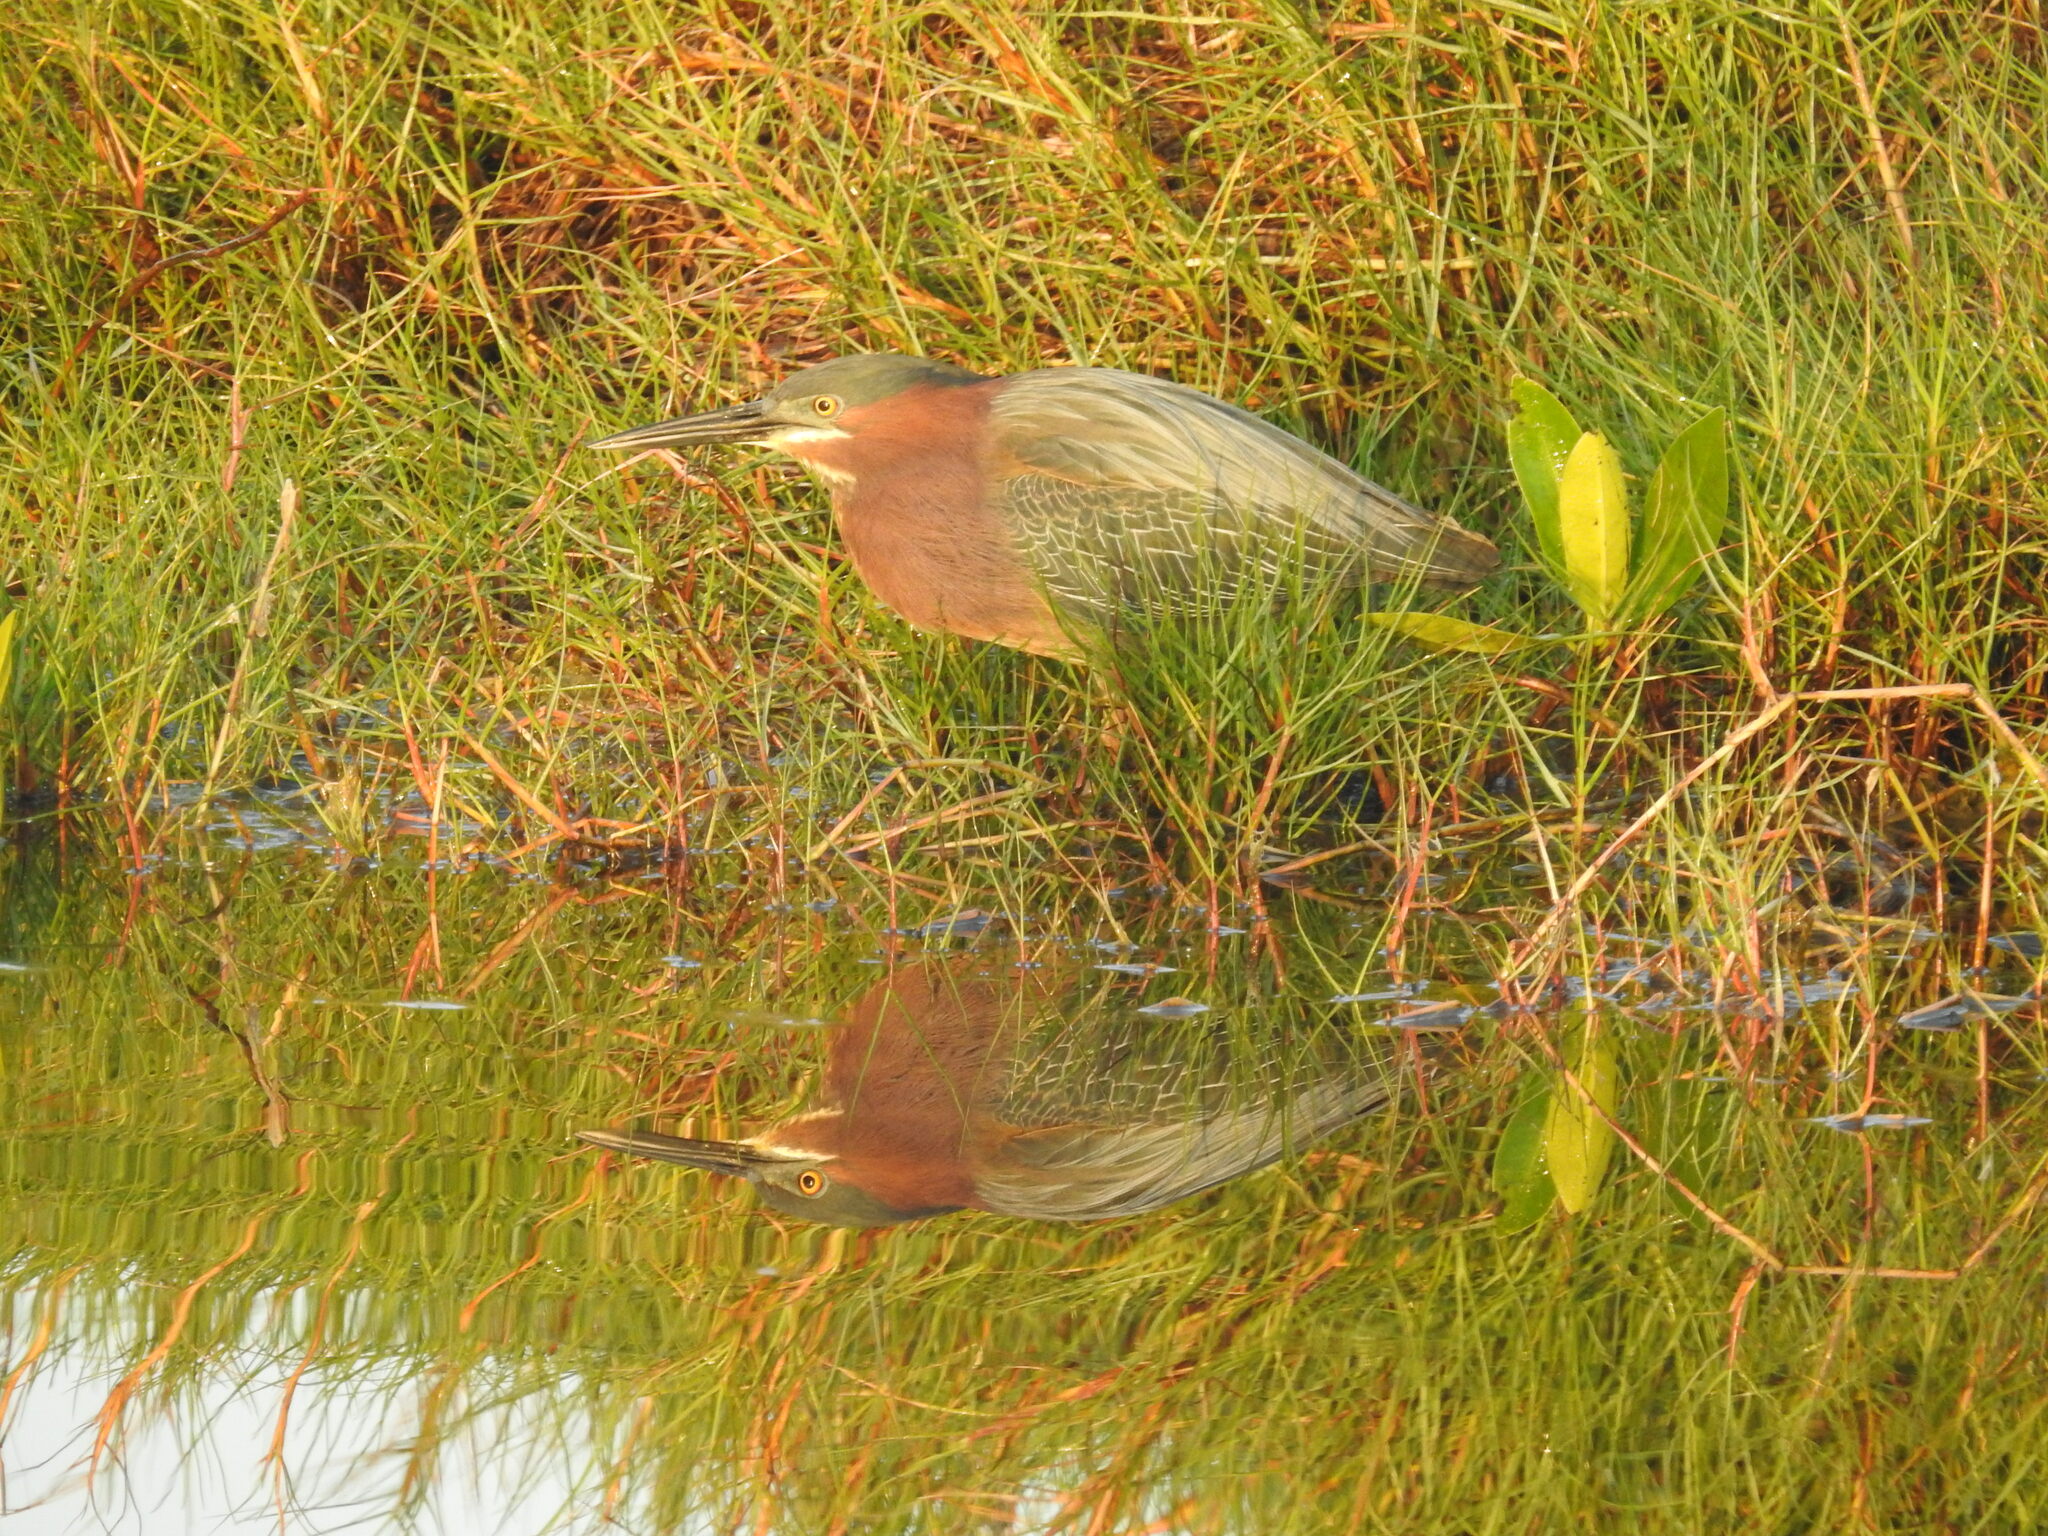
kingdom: Animalia
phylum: Chordata
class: Aves
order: Pelecaniformes
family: Ardeidae
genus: Butorides
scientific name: Butorides virescens
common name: Green heron
